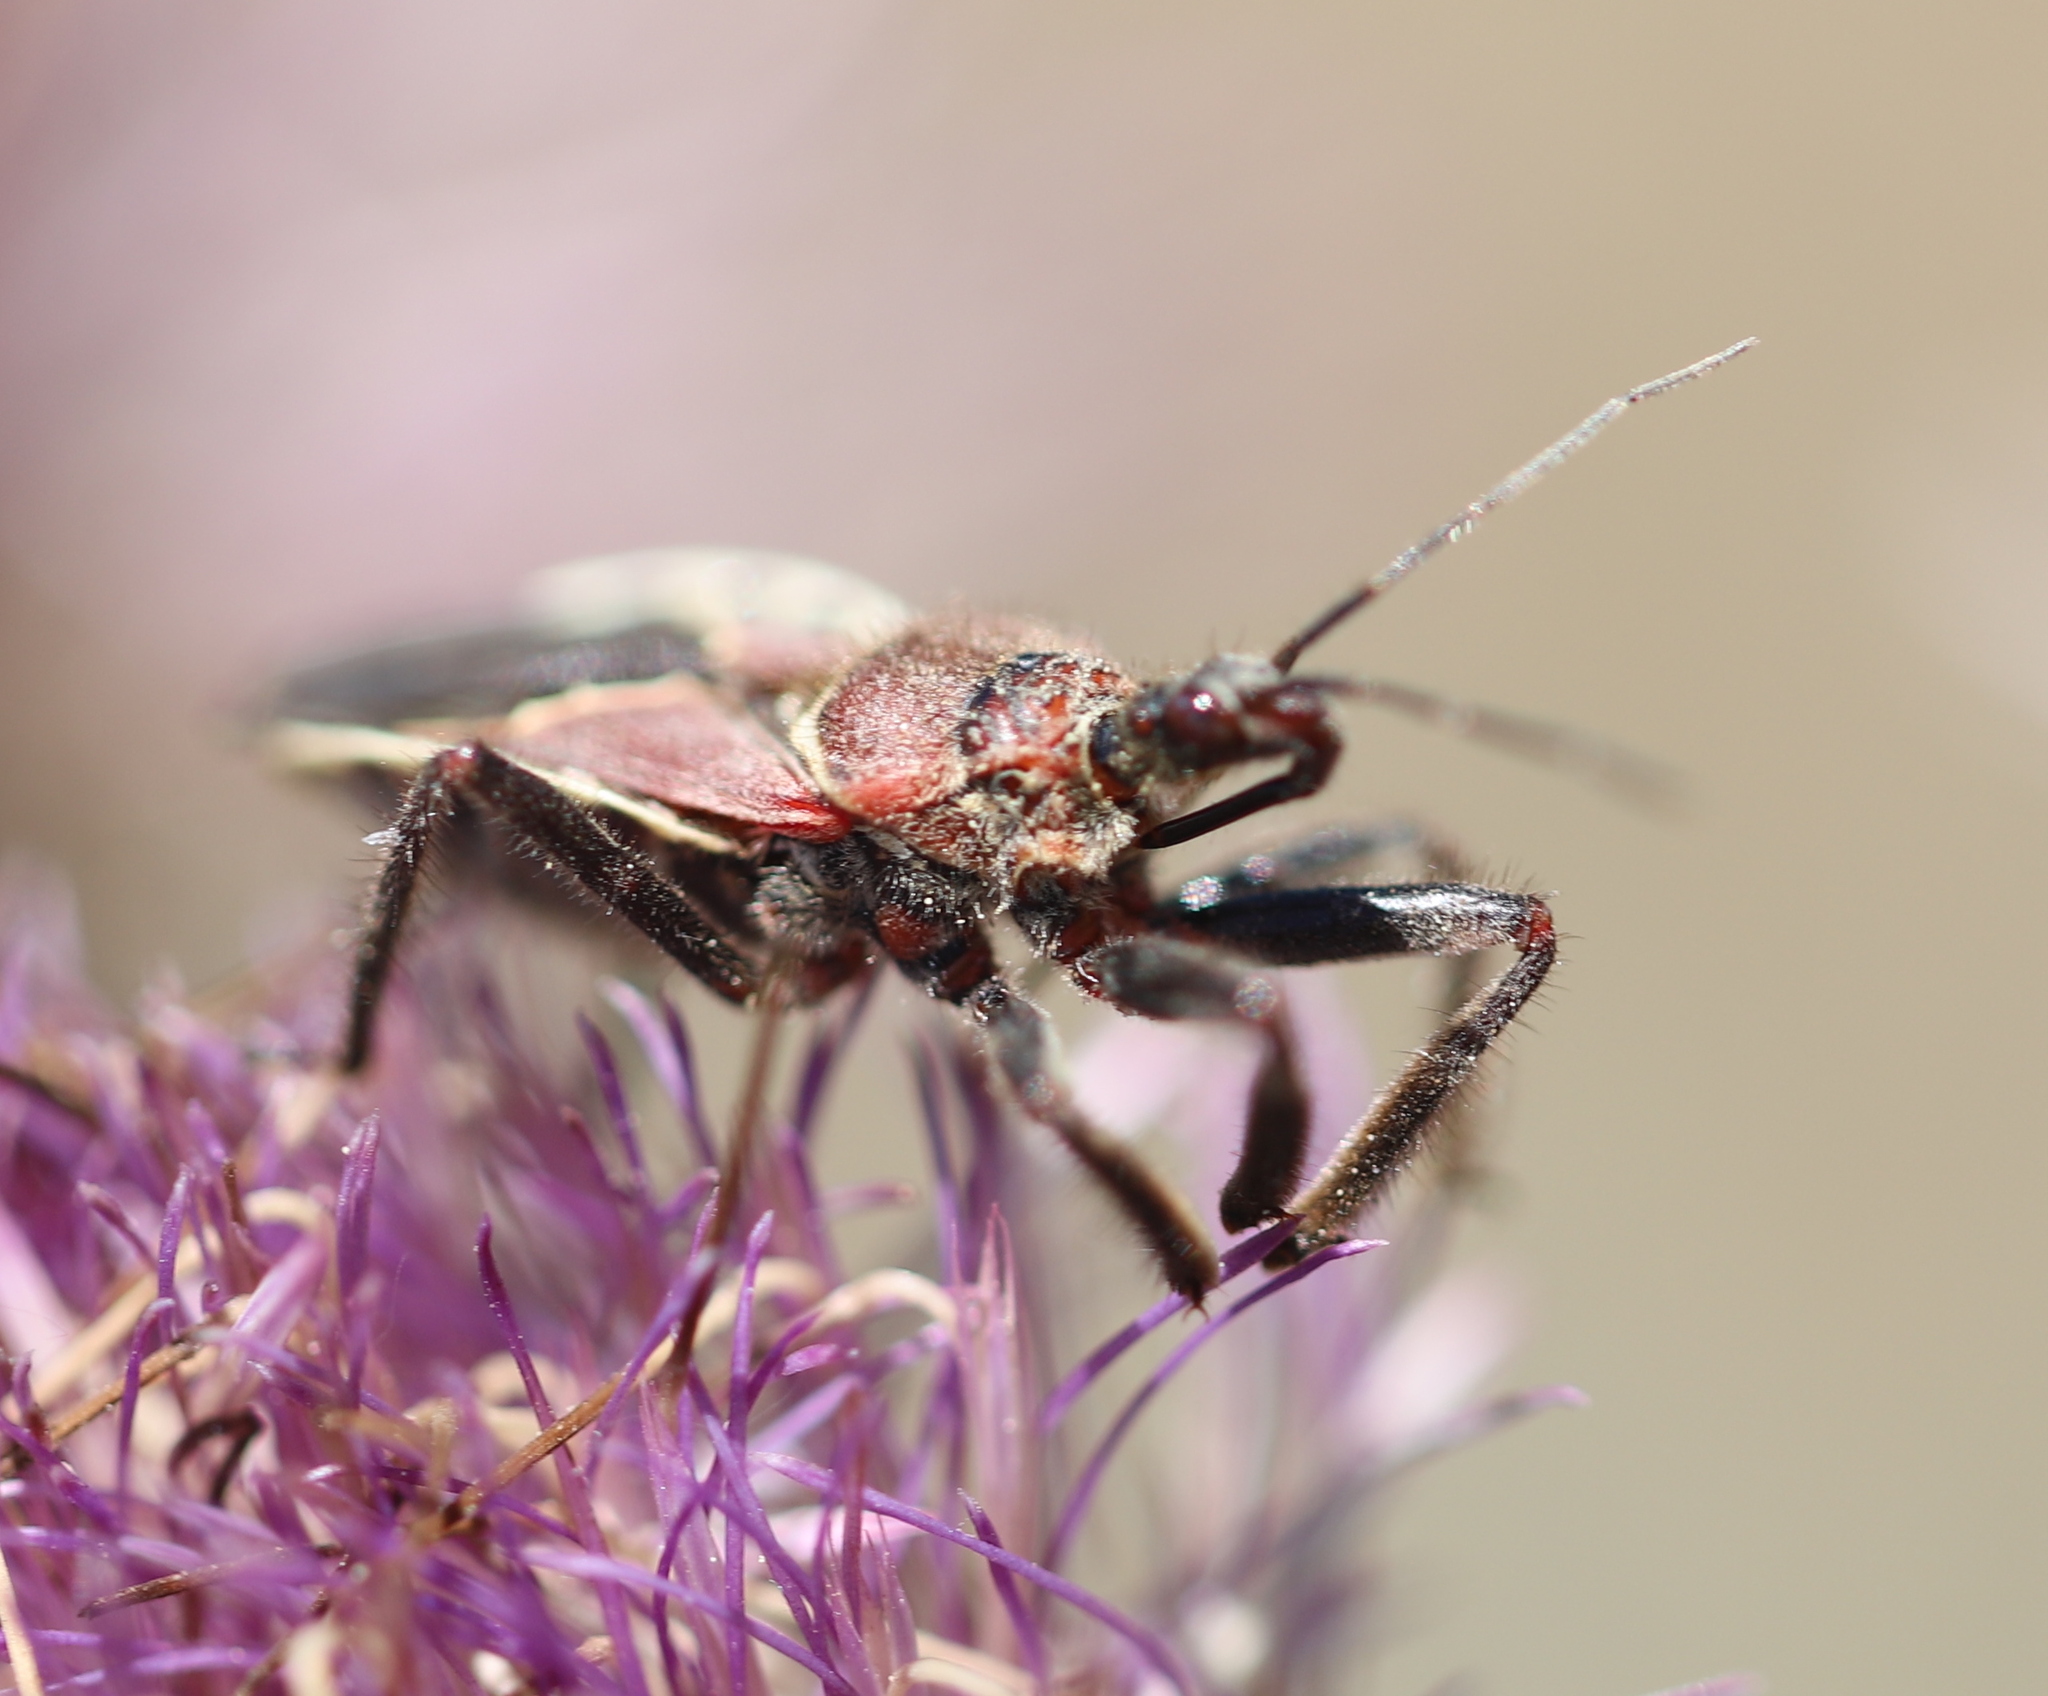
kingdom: Animalia
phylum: Arthropoda
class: Insecta
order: Hemiptera
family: Reduviidae
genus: Apiomerus
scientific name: Apiomerus spissipes
